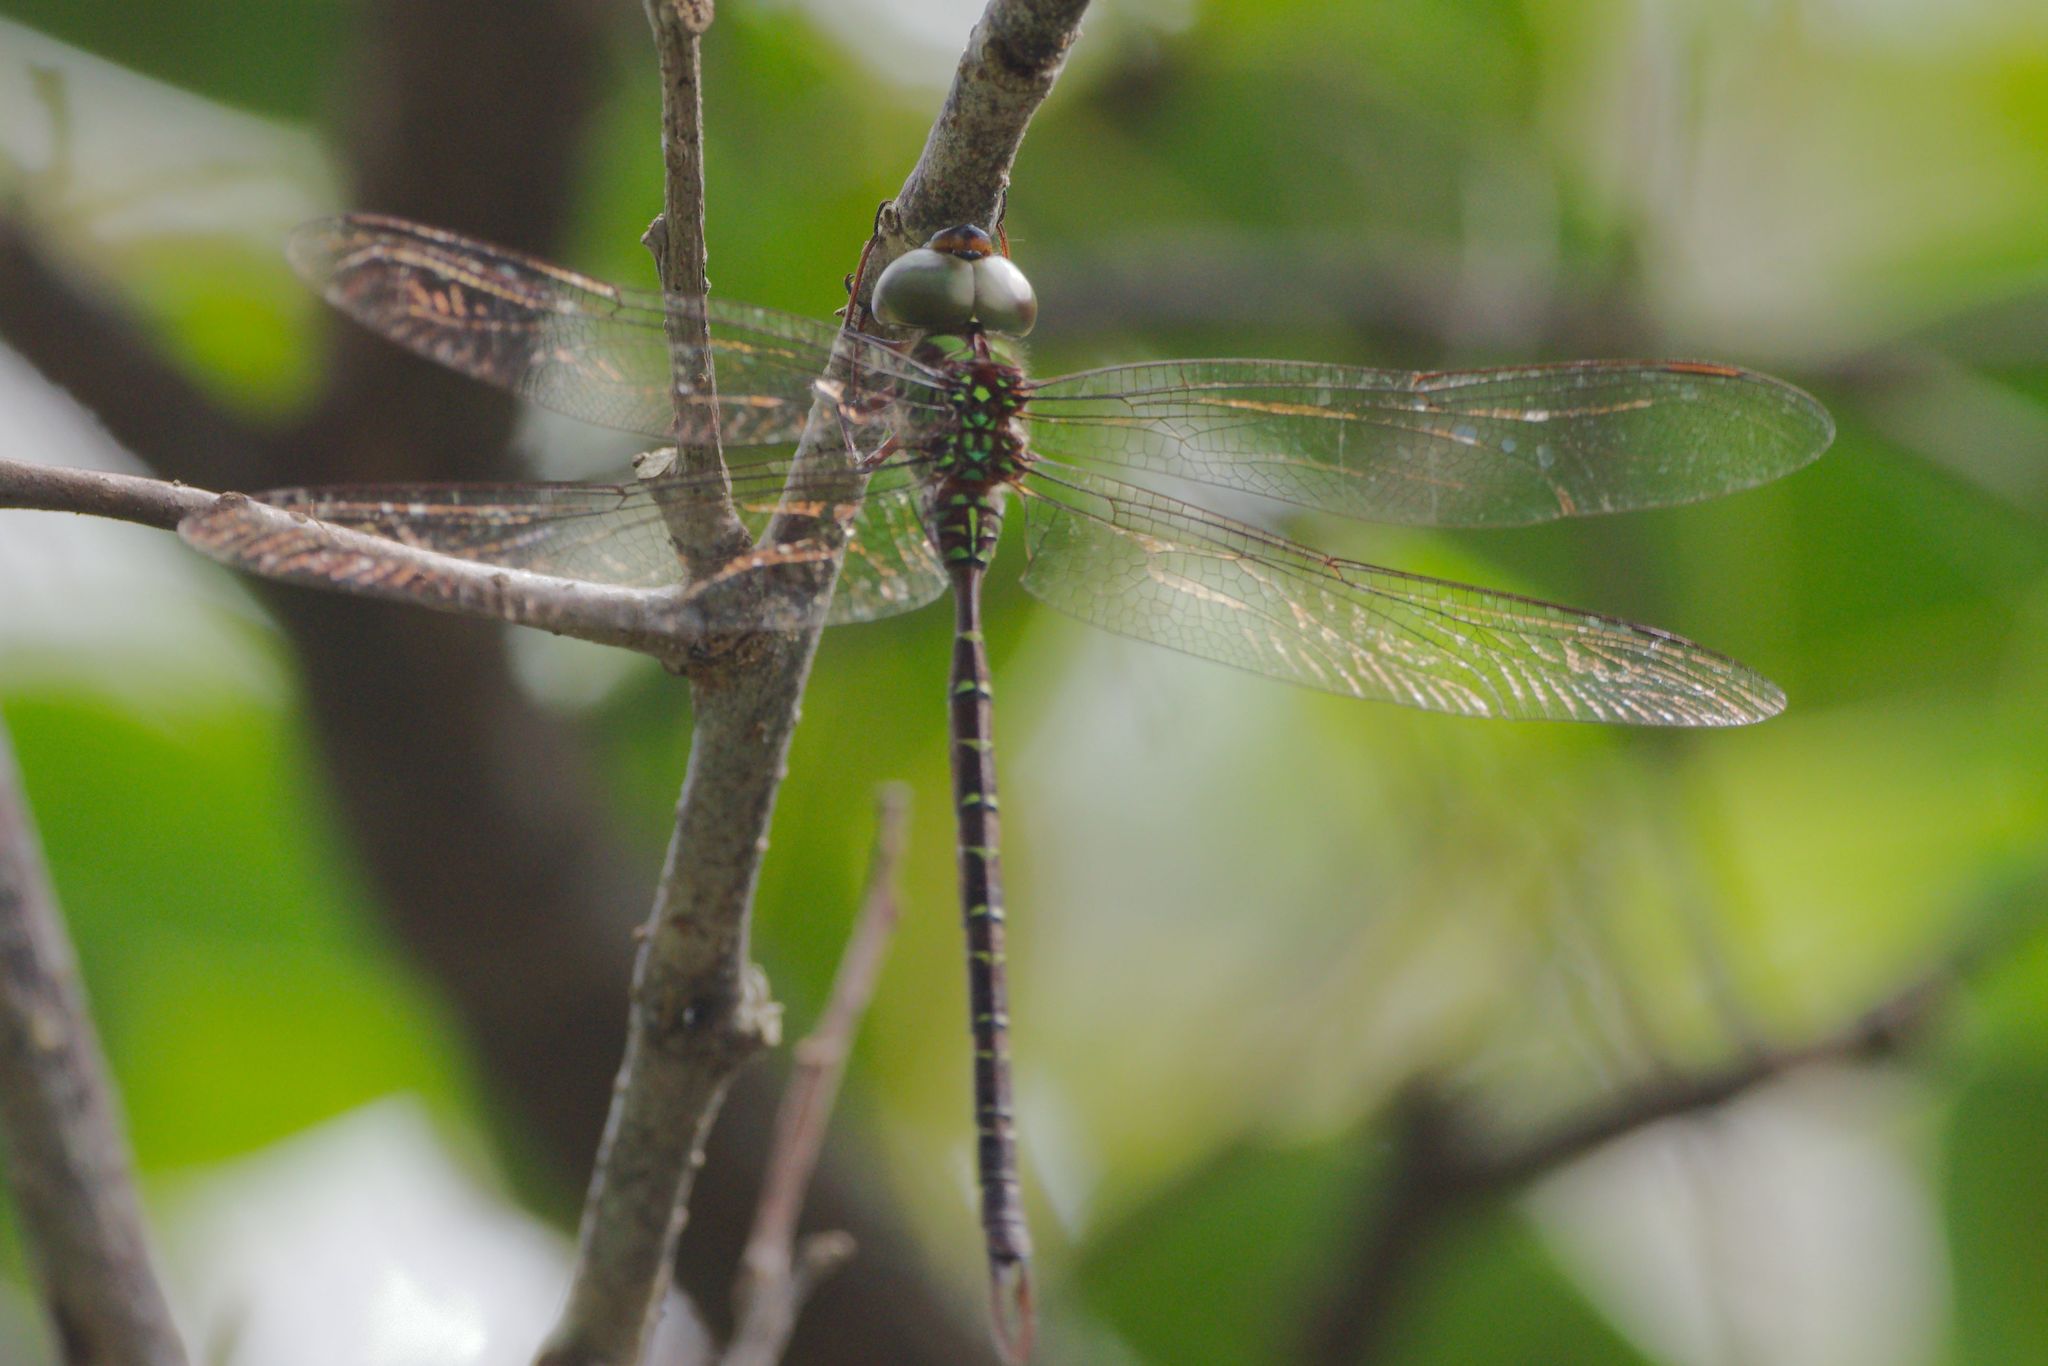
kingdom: Animalia
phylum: Arthropoda
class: Insecta
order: Odonata
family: Aeshnidae
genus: Triacanthagyna
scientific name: Triacanthagyna trifida
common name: Phantom darner
